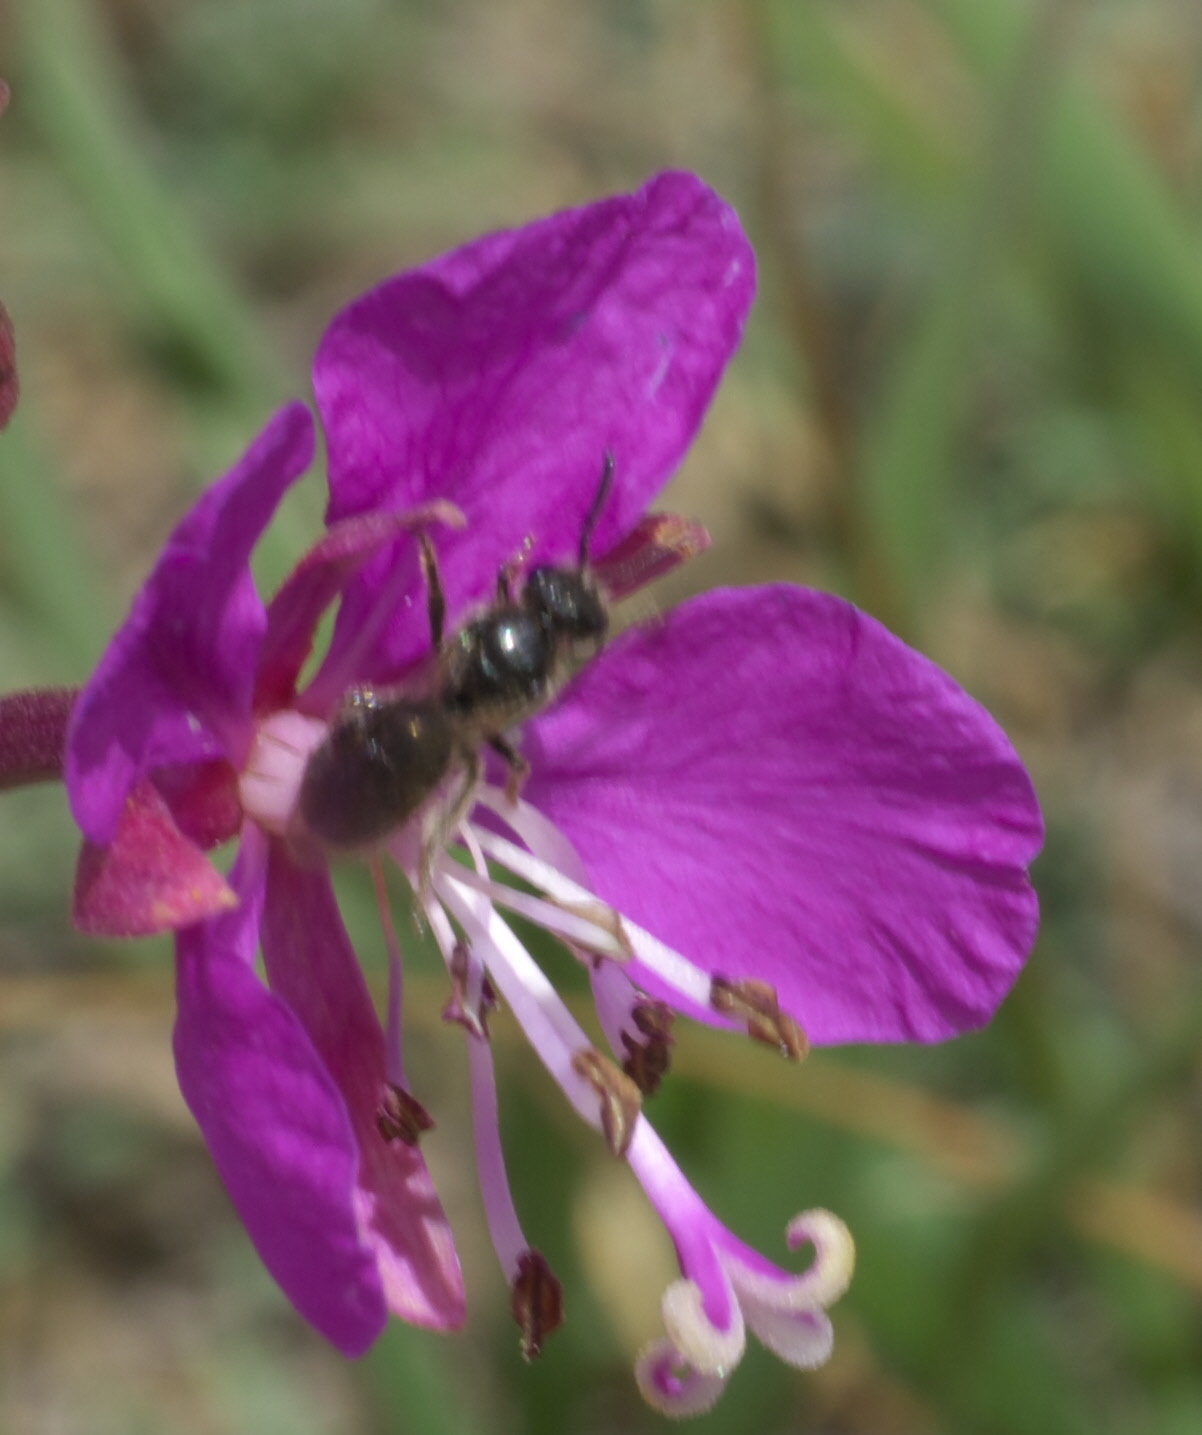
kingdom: Animalia
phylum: Arthropoda
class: Insecta
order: Hymenoptera
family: Halictidae
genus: Lasioglossum
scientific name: Lasioglossum
